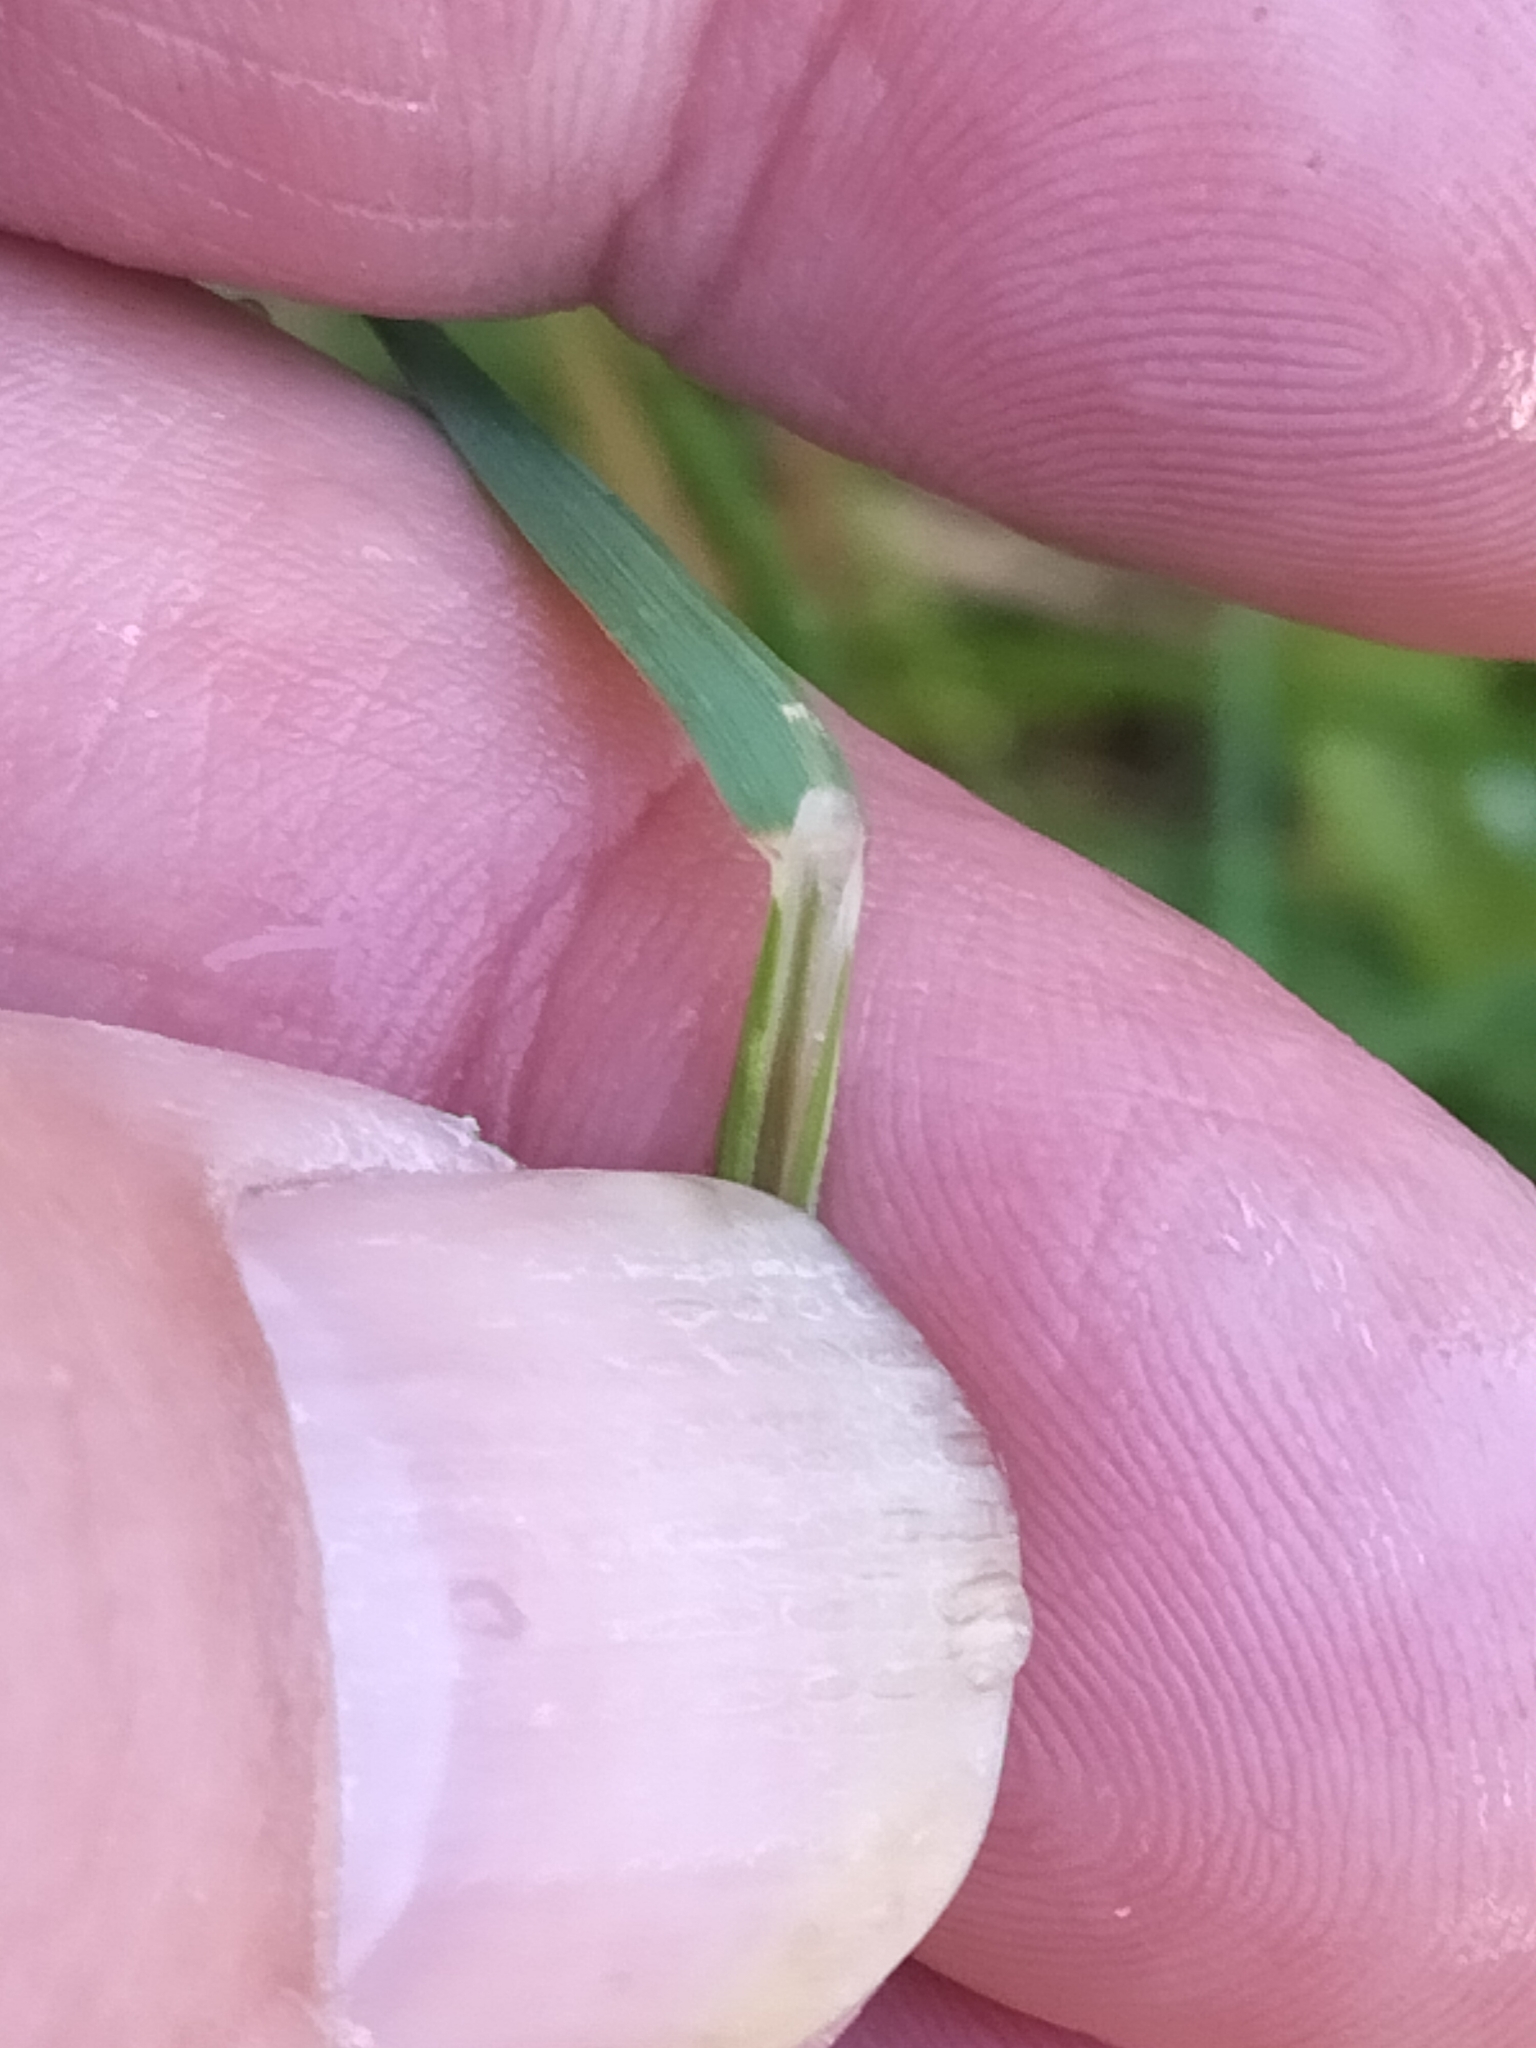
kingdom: Plantae
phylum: Tracheophyta
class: Liliopsida
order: Poales
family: Poaceae
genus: Dichelachne
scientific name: Dichelachne crinita
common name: Clovenfoot plumegrass
